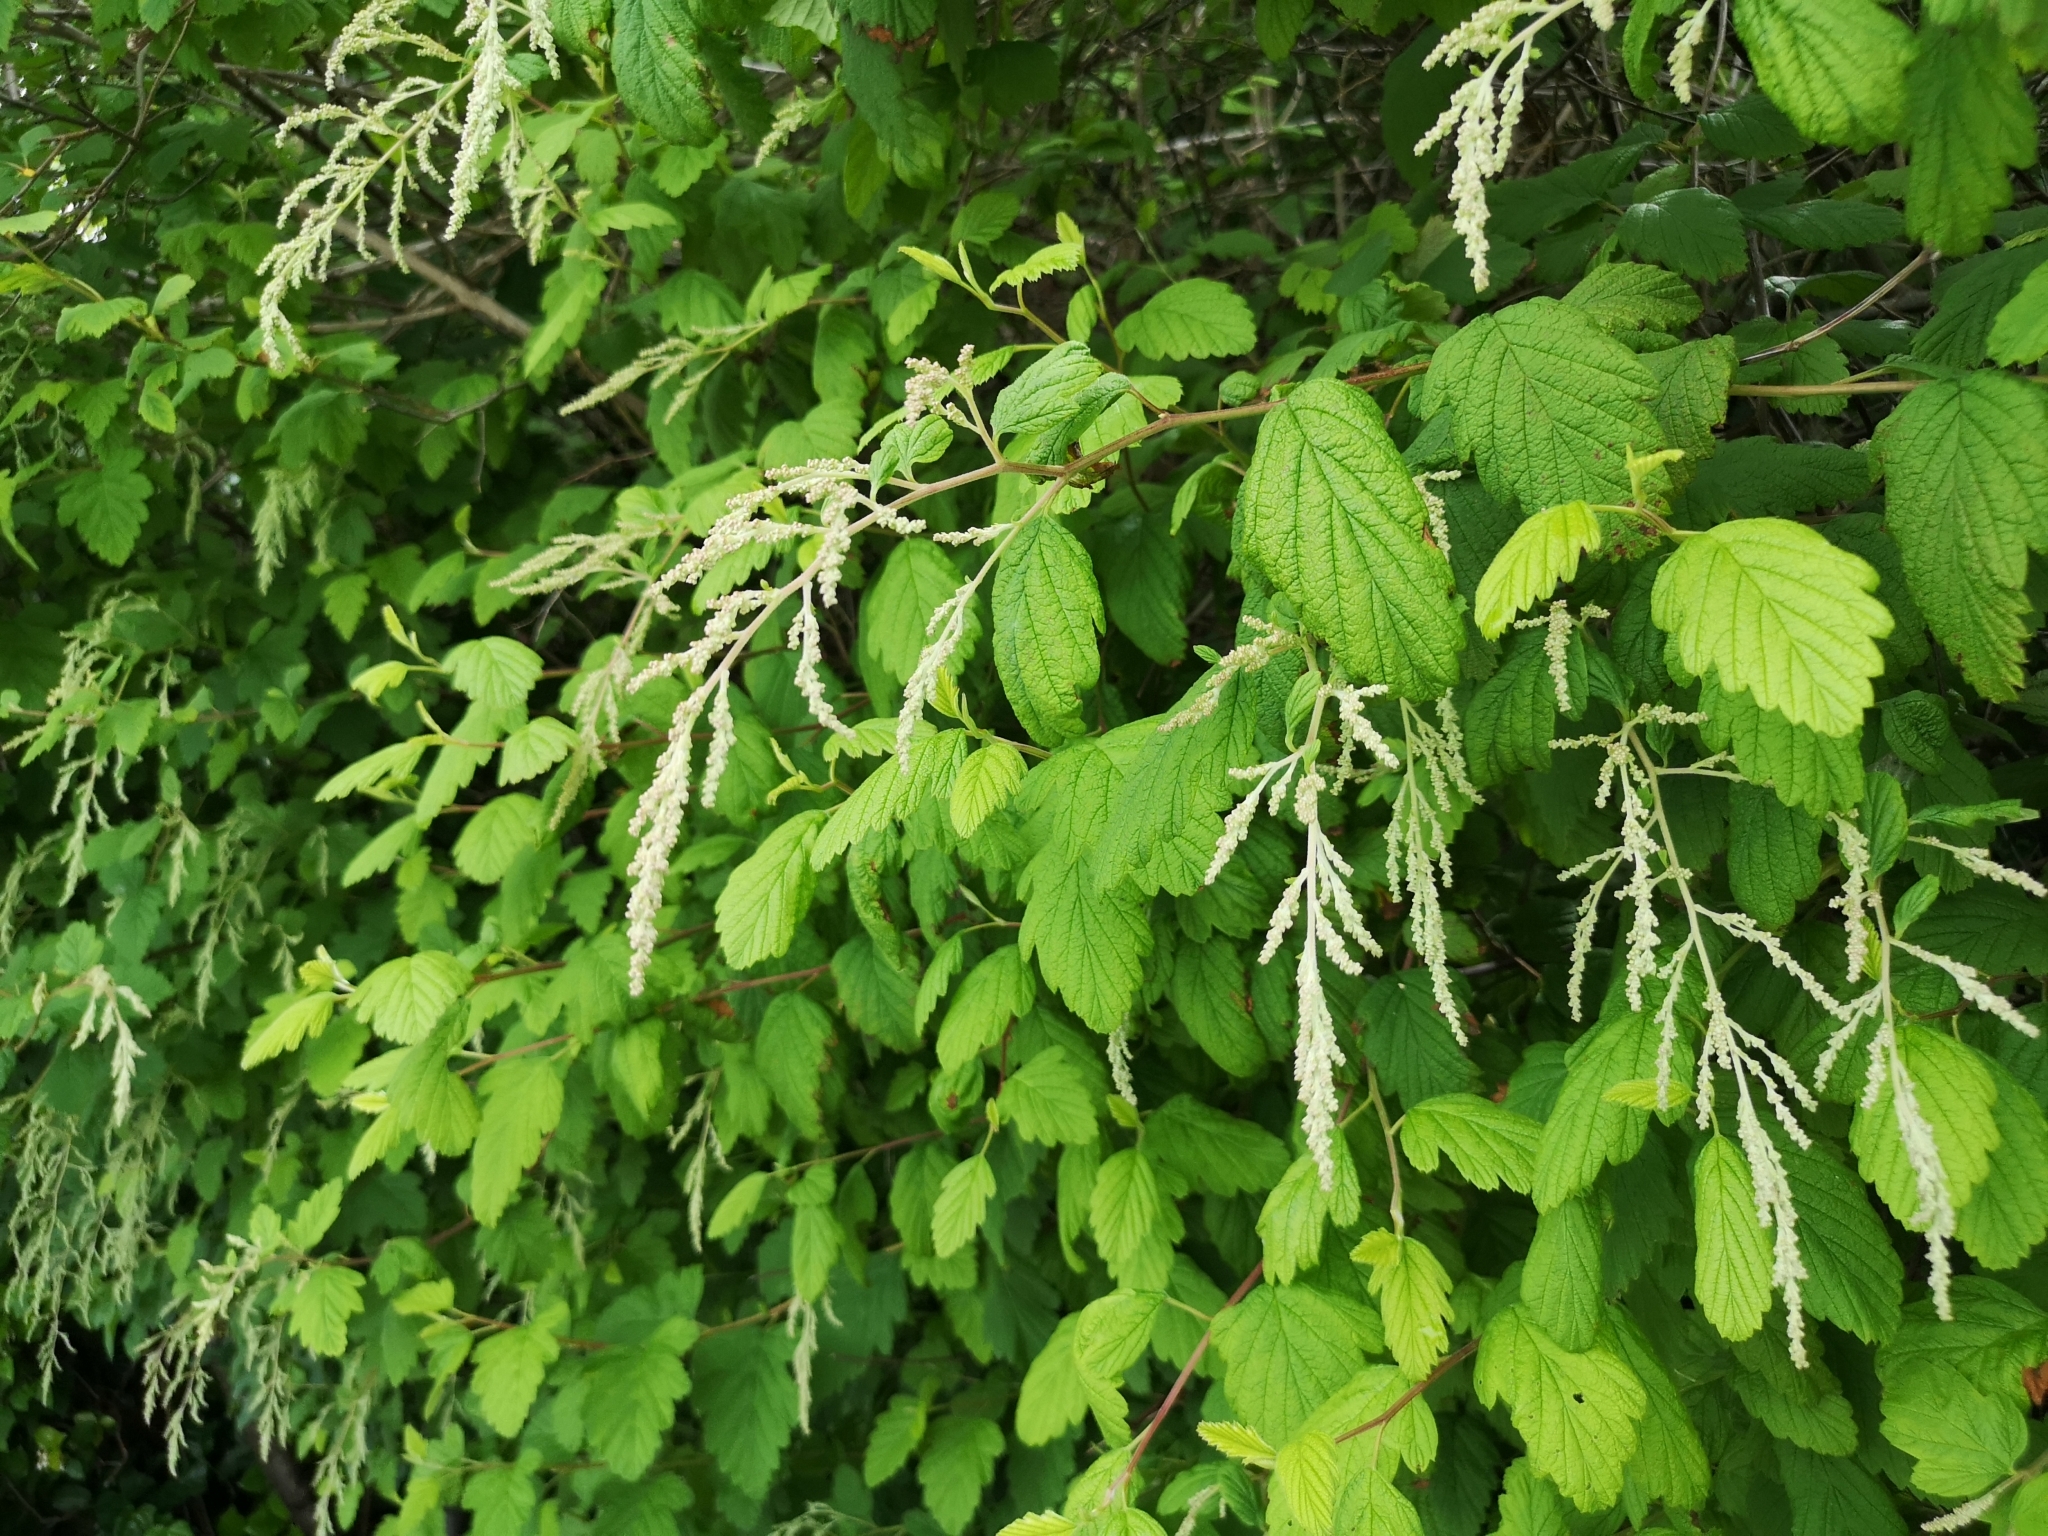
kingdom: Plantae
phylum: Tracheophyta
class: Magnoliopsida
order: Rosales
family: Rosaceae
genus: Holodiscus
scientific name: Holodiscus discolor
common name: Oceanspray
